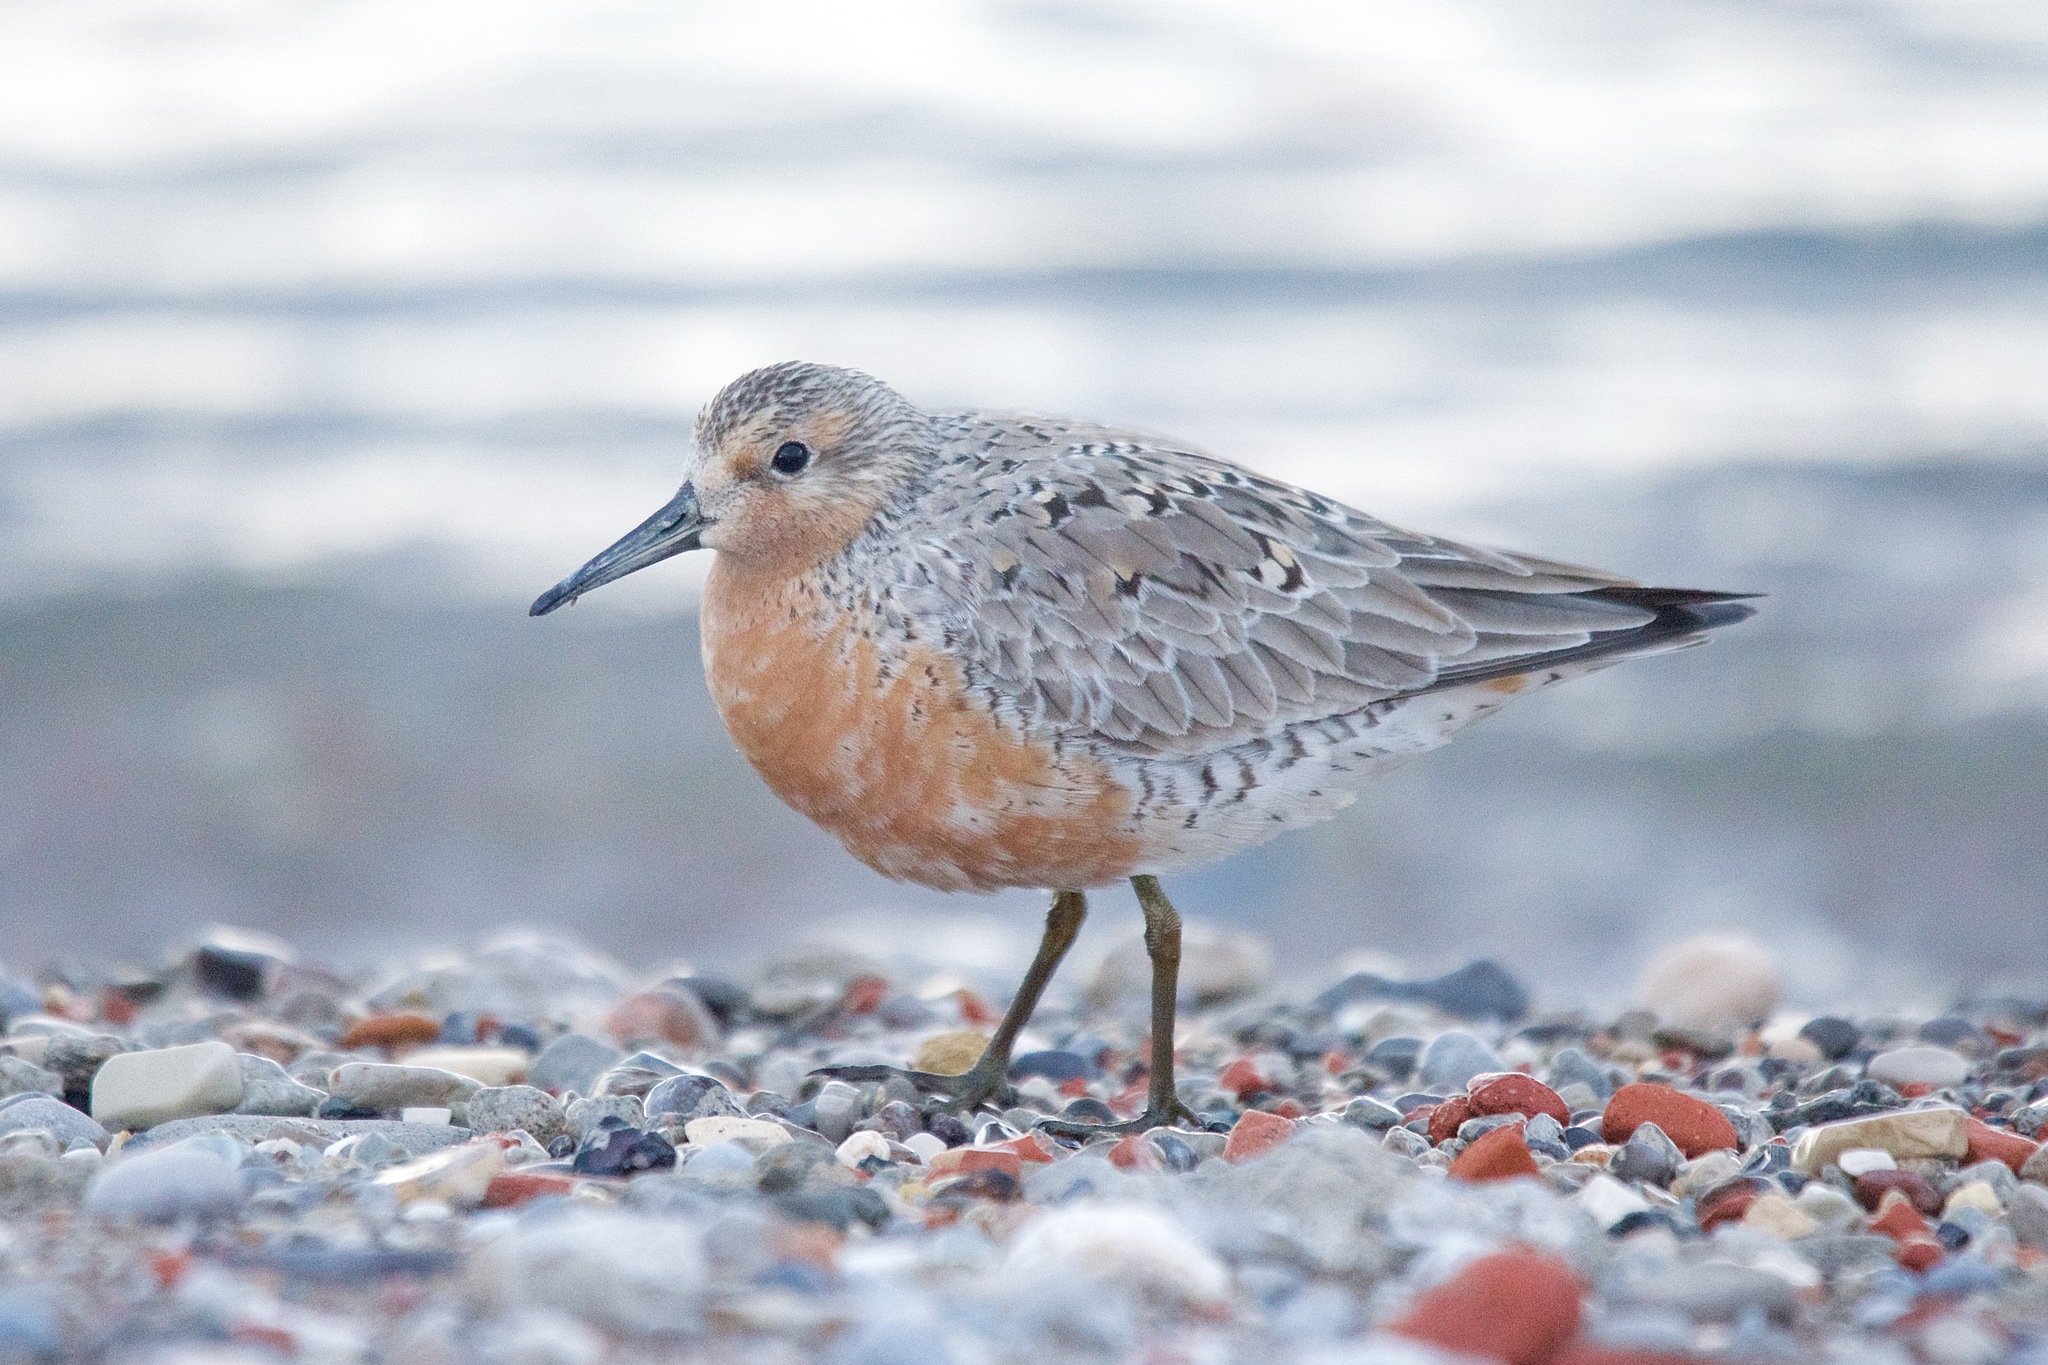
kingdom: Animalia
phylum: Chordata
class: Aves
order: Charadriiformes
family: Scolopacidae
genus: Calidris
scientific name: Calidris canutus
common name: Red knot
